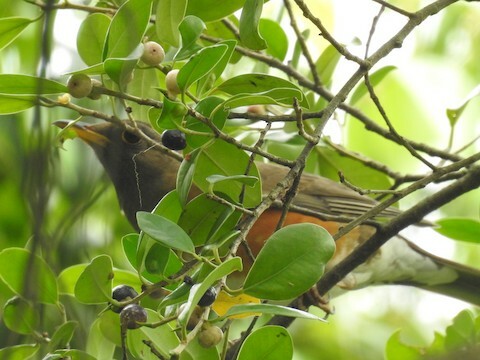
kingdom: Animalia
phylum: Chordata
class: Aves
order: Passeriformes
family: Turdidae
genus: Turdus
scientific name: Turdus chrysolaus
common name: Brown-headed thrush
